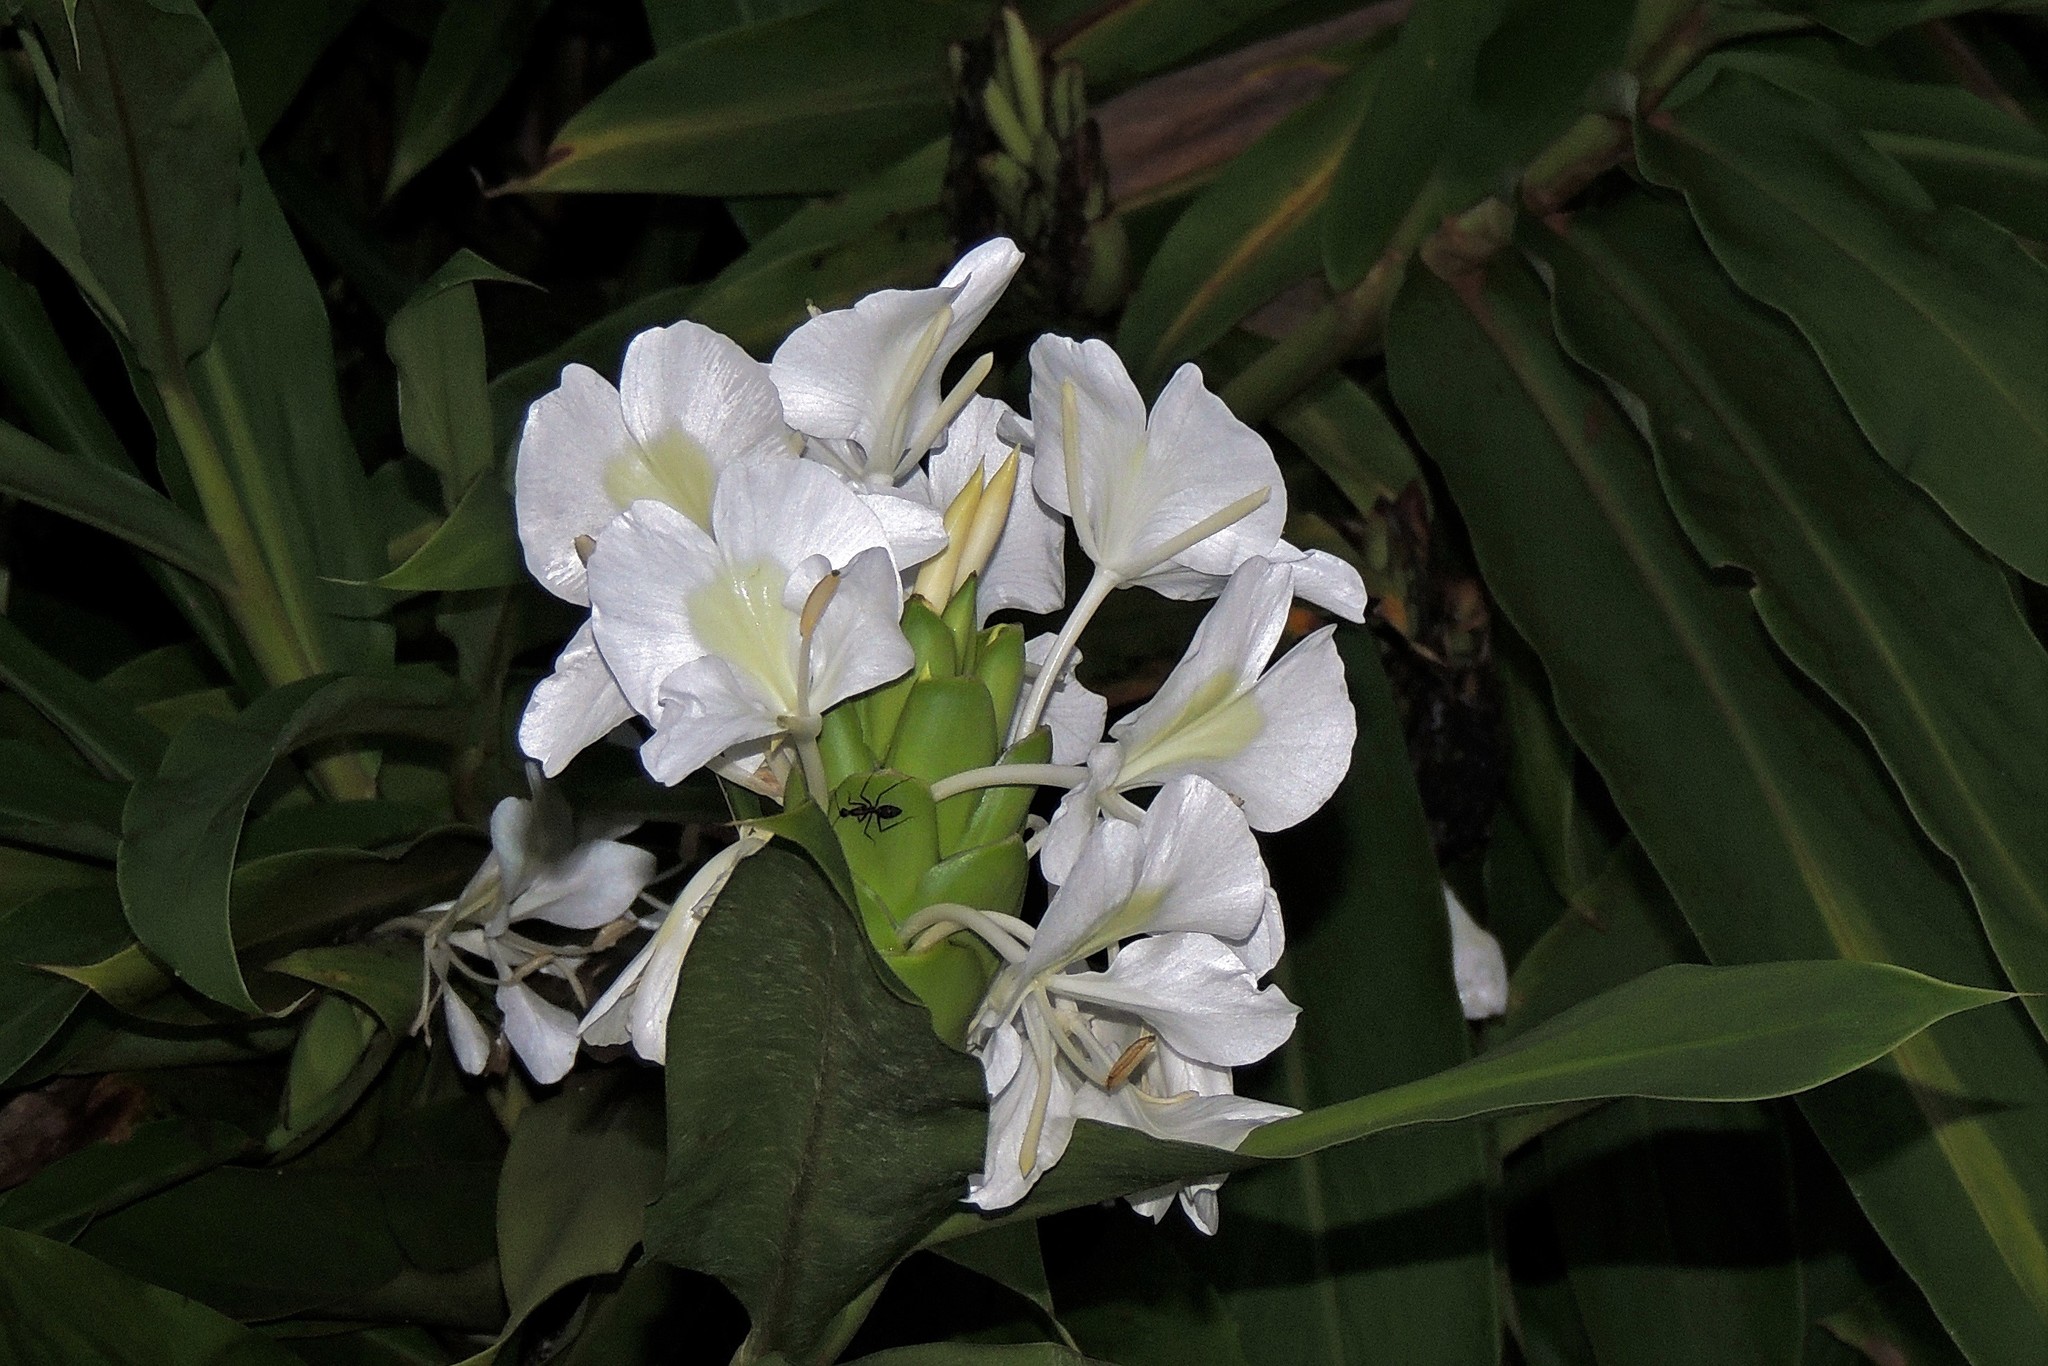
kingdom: Plantae
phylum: Tracheophyta
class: Liliopsida
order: Zingiberales
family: Zingiberaceae
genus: Hedychium
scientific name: Hedychium coronarium
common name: White garland-lily
